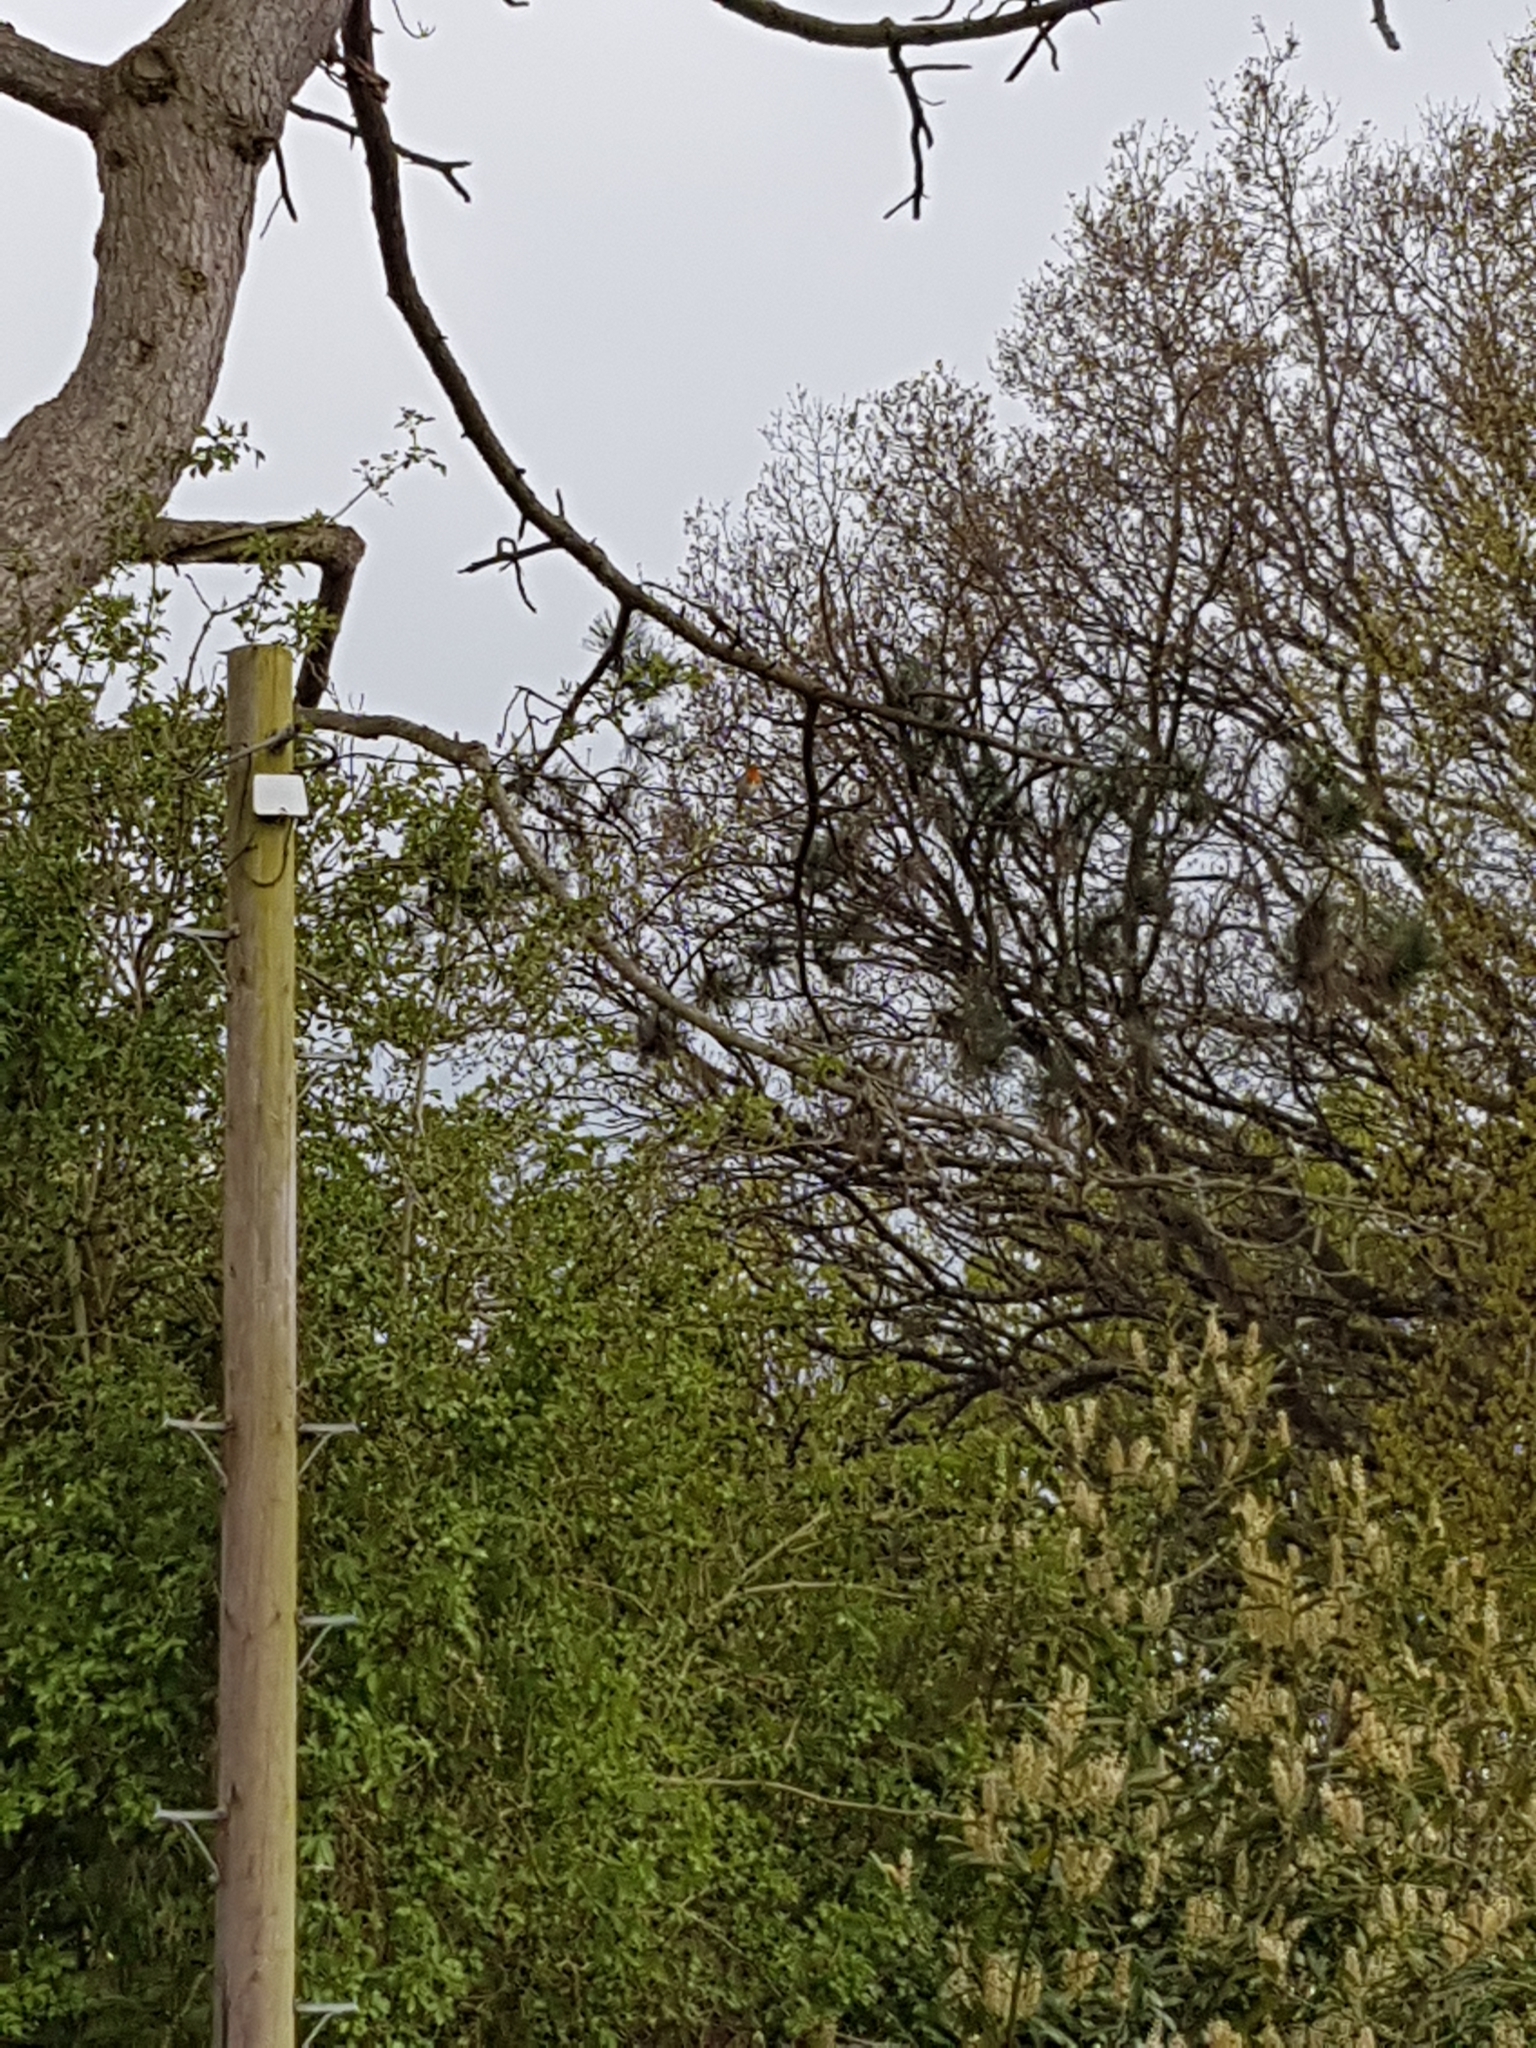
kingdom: Animalia
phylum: Chordata
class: Aves
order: Passeriformes
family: Muscicapidae
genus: Erithacus
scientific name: Erithacus rubecula
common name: European robin
